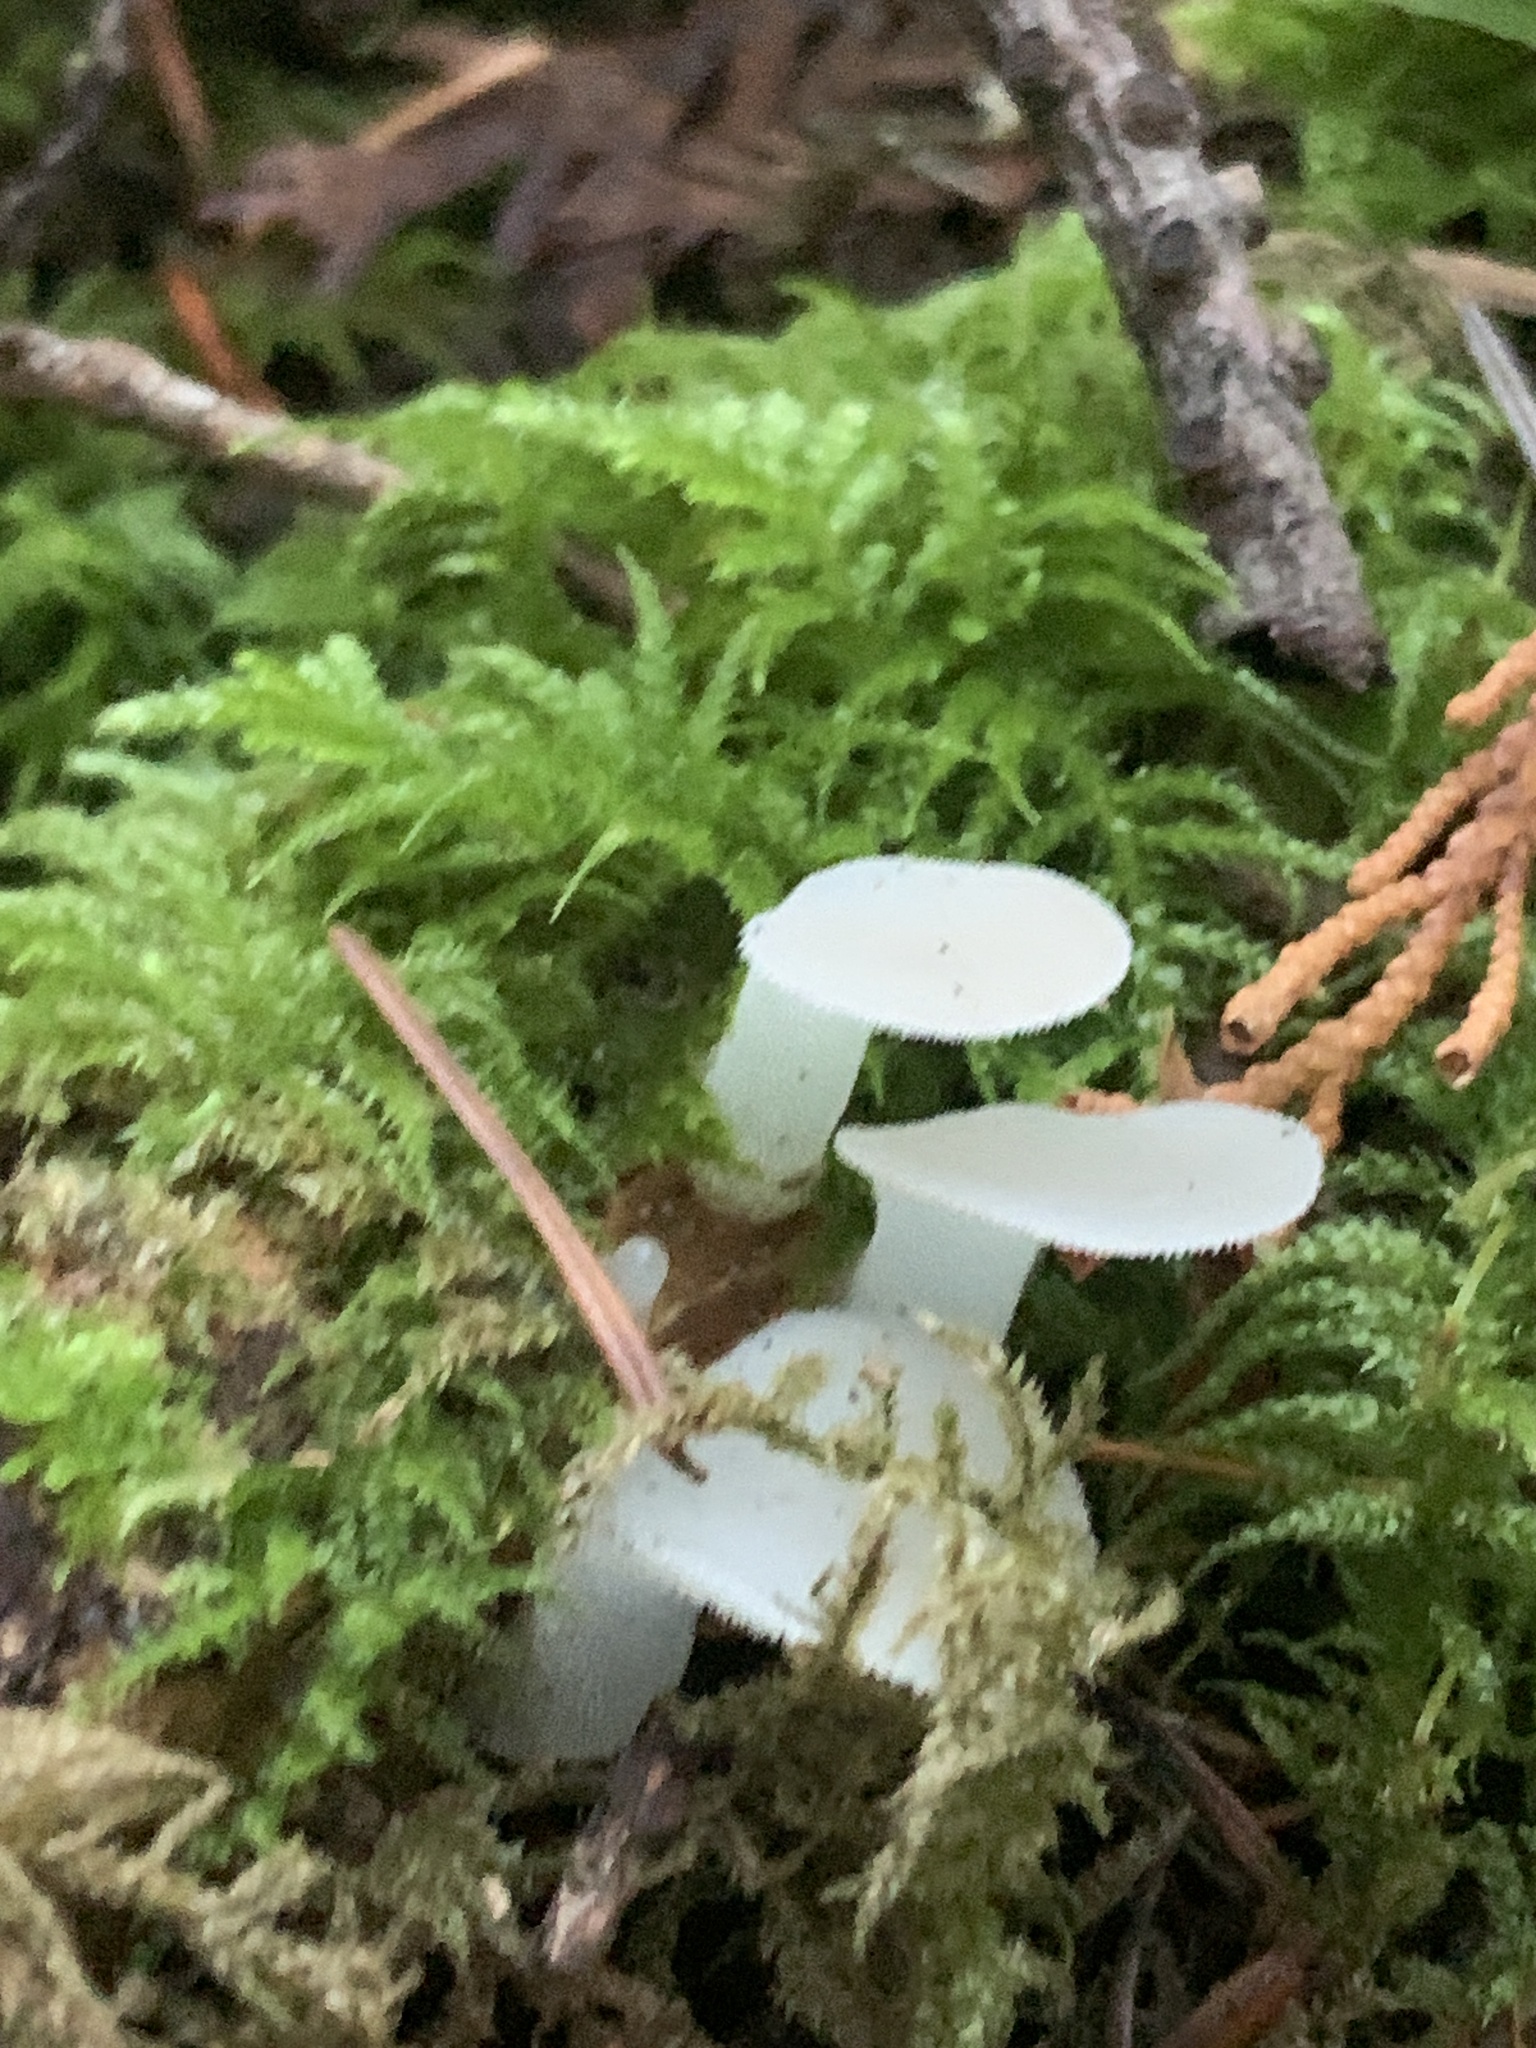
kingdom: Fungi
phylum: Basidiomycota
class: Agaricomycetes
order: Auriculariales
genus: Pseudohydnum
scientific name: Pseudohydnum gelatinosum
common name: Jelly tongue
